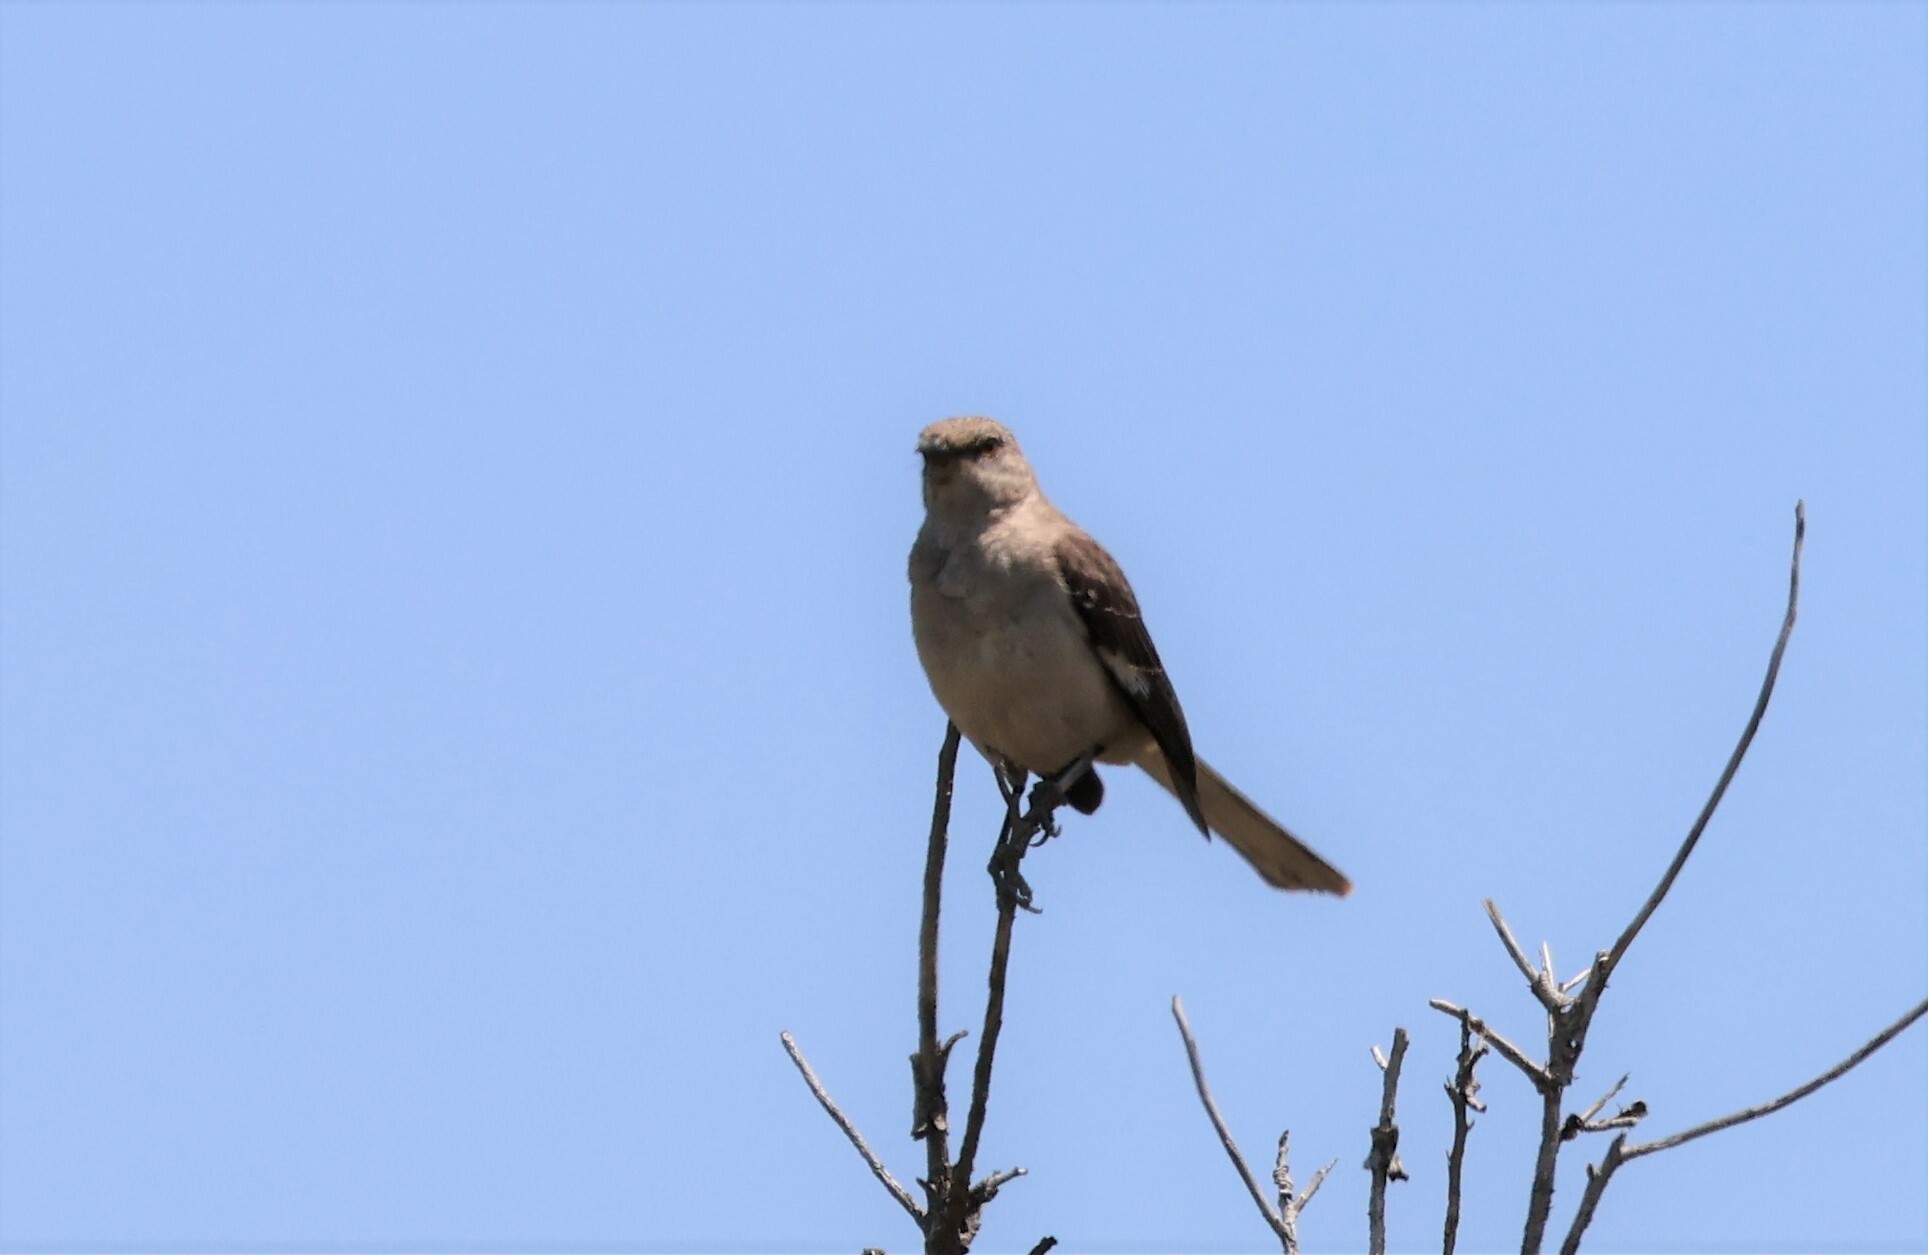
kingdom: Animalia
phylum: Chordata
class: Aves
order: Passeriformes
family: Mimidae
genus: Mimus
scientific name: Mimus polyglottos
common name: Northern mockingbird
